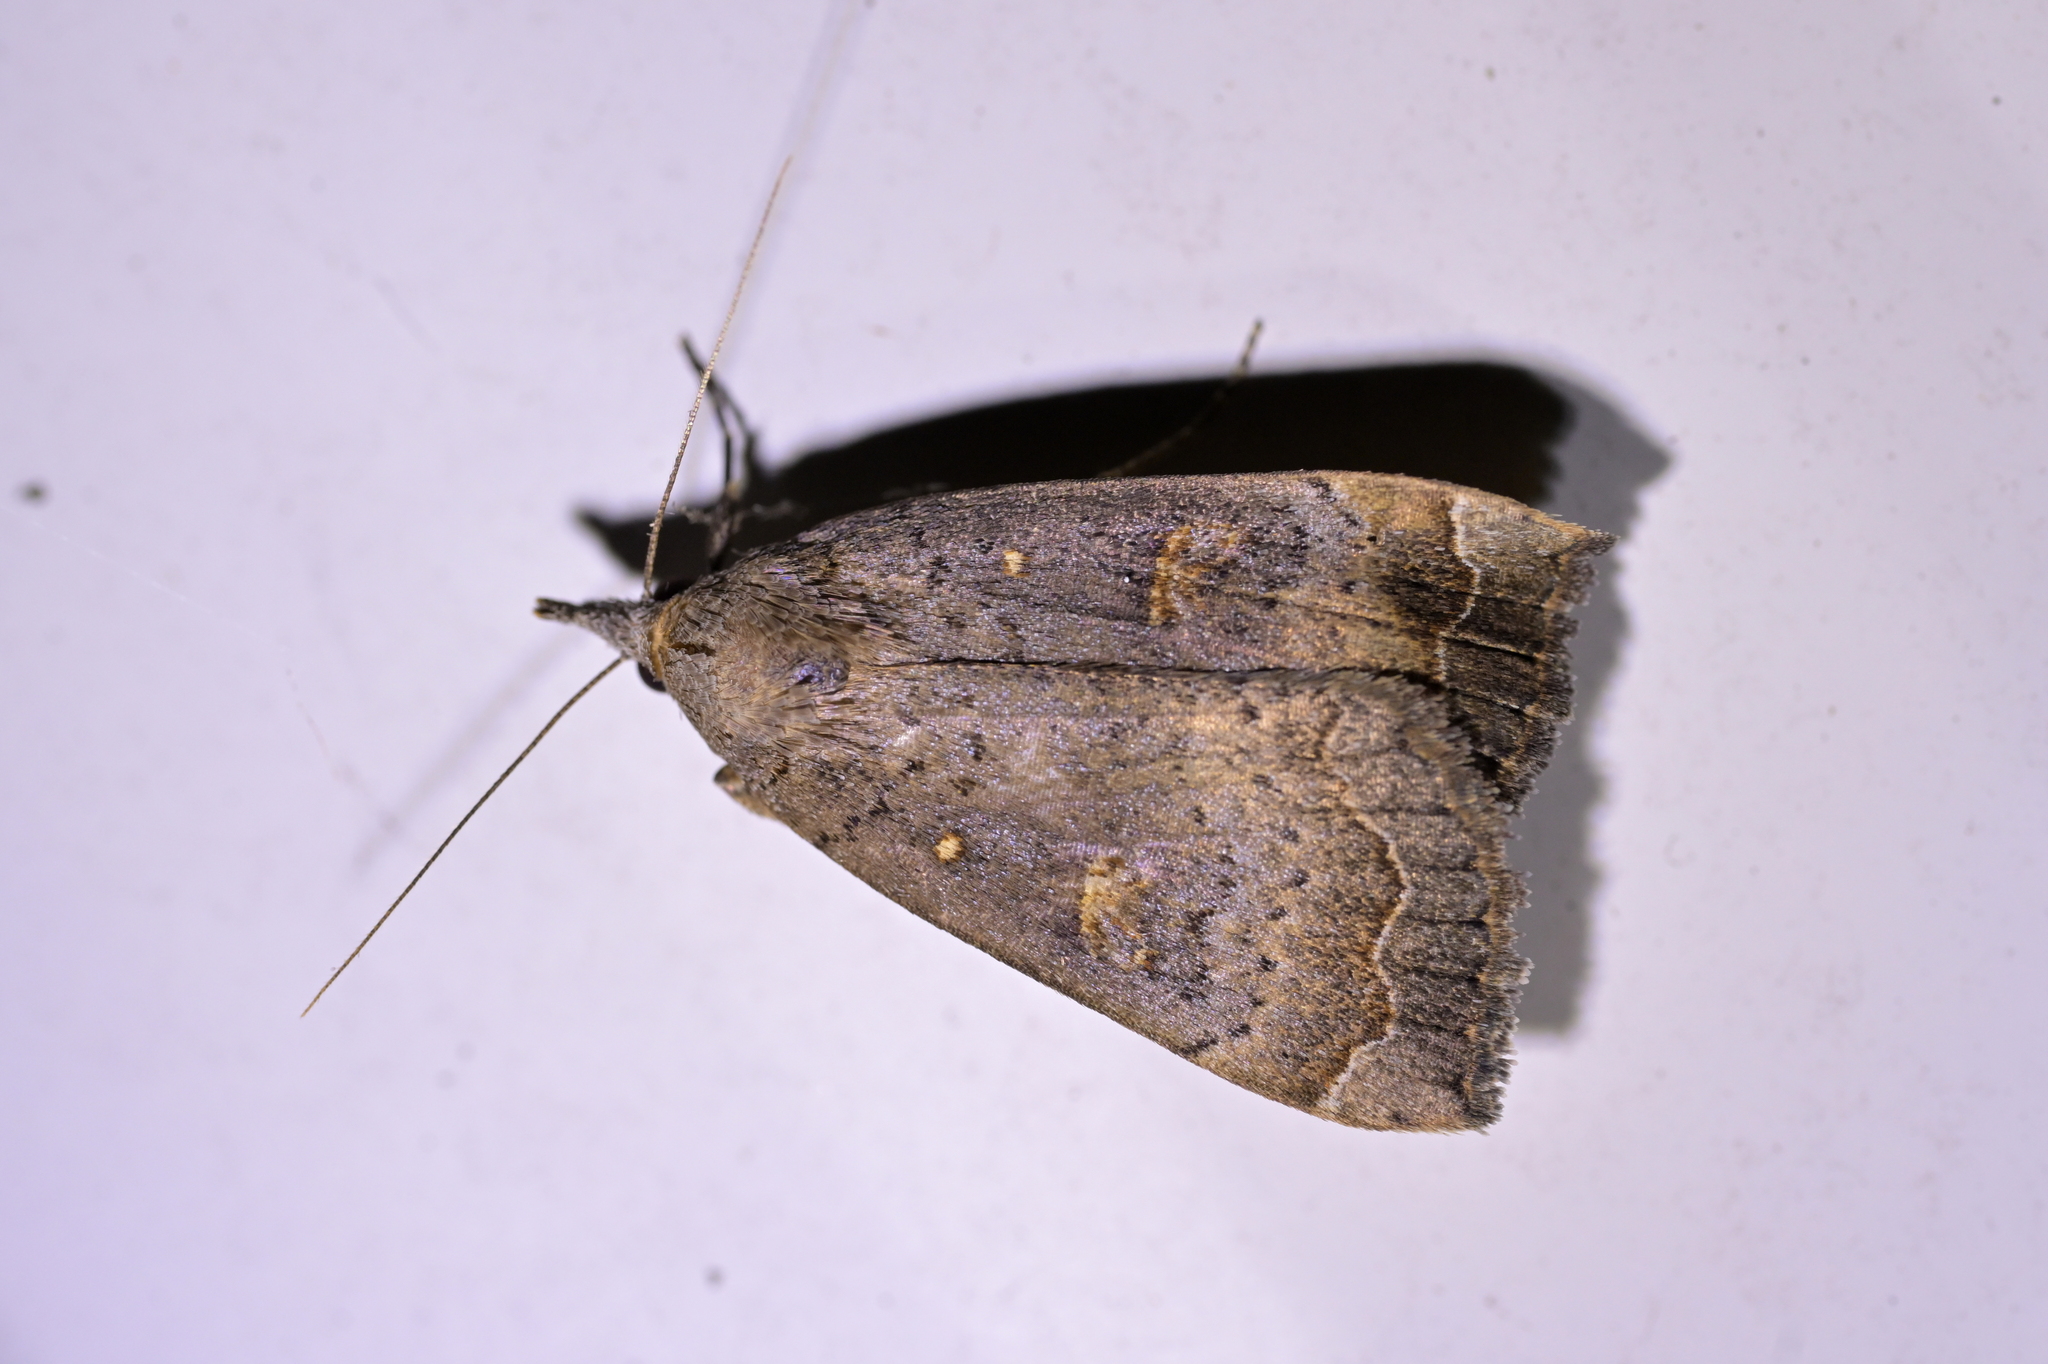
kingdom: Animalia
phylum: Arthropoda
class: Insecta
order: Lepidoptera
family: Erebidae
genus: Rhapsa
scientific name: Rhapsa scotosialis
